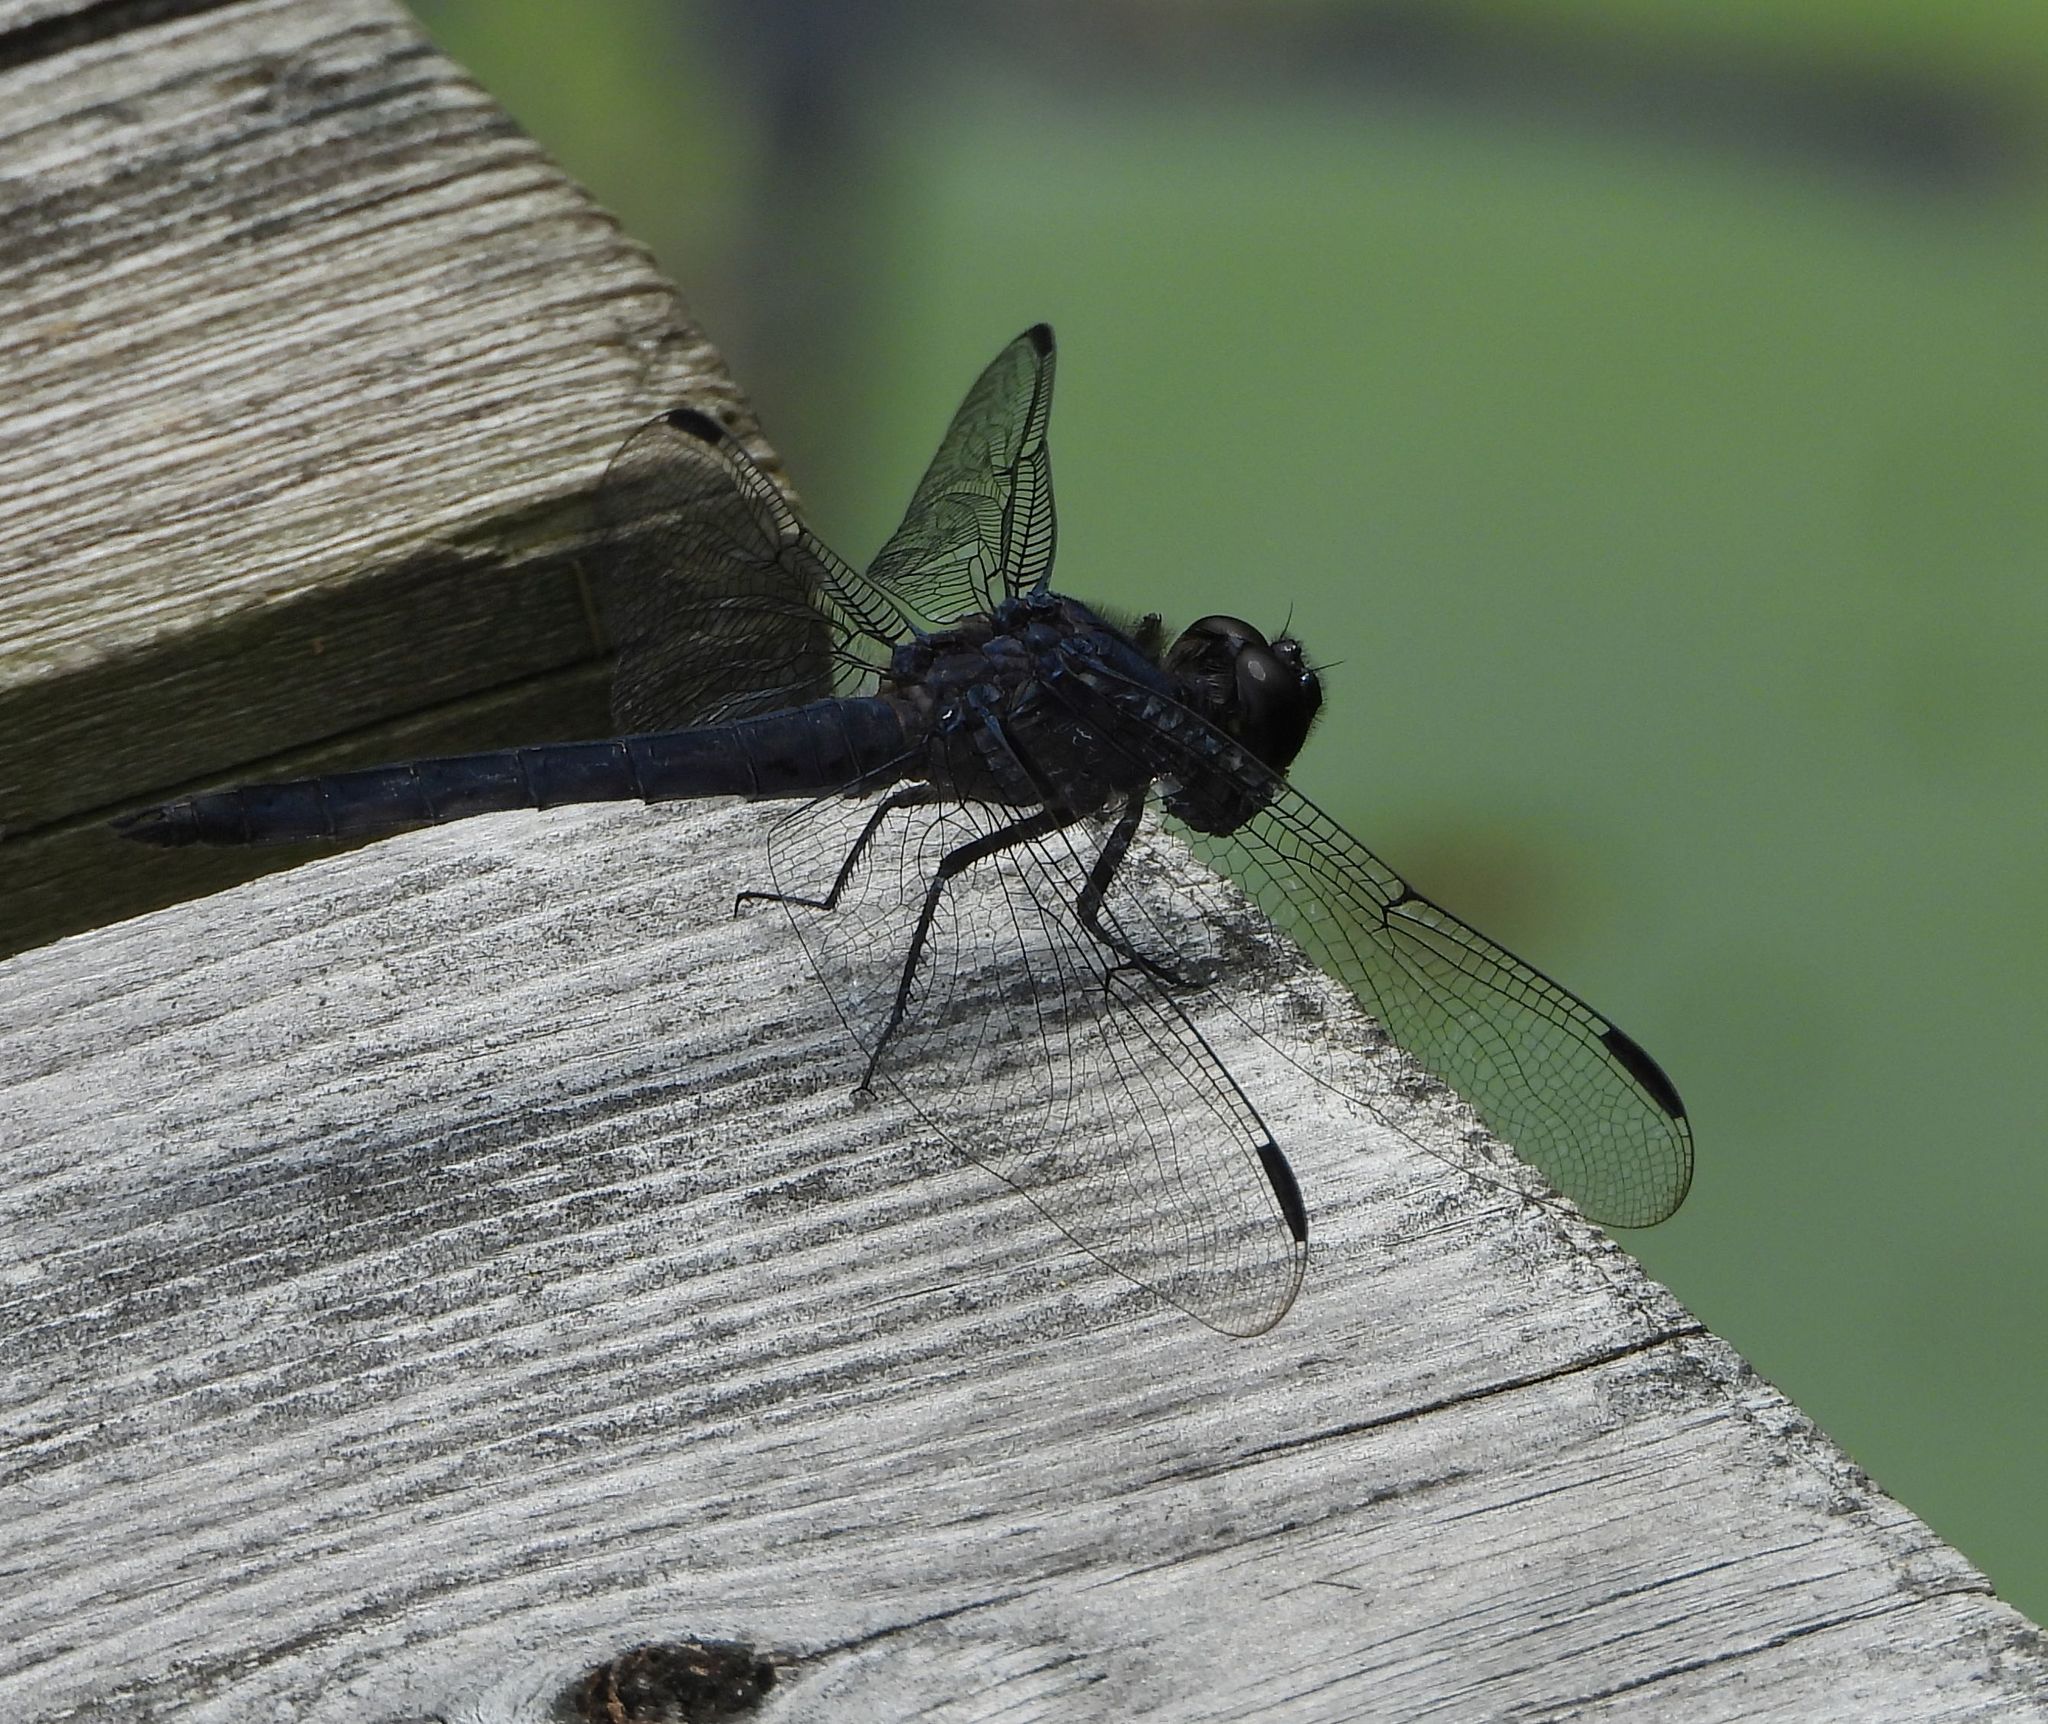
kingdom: Animalia
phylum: Arthropoda
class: Insecta
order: Odonata
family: Libellulidae
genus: Libellula
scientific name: Libellula incesta
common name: Slaty skimmer
